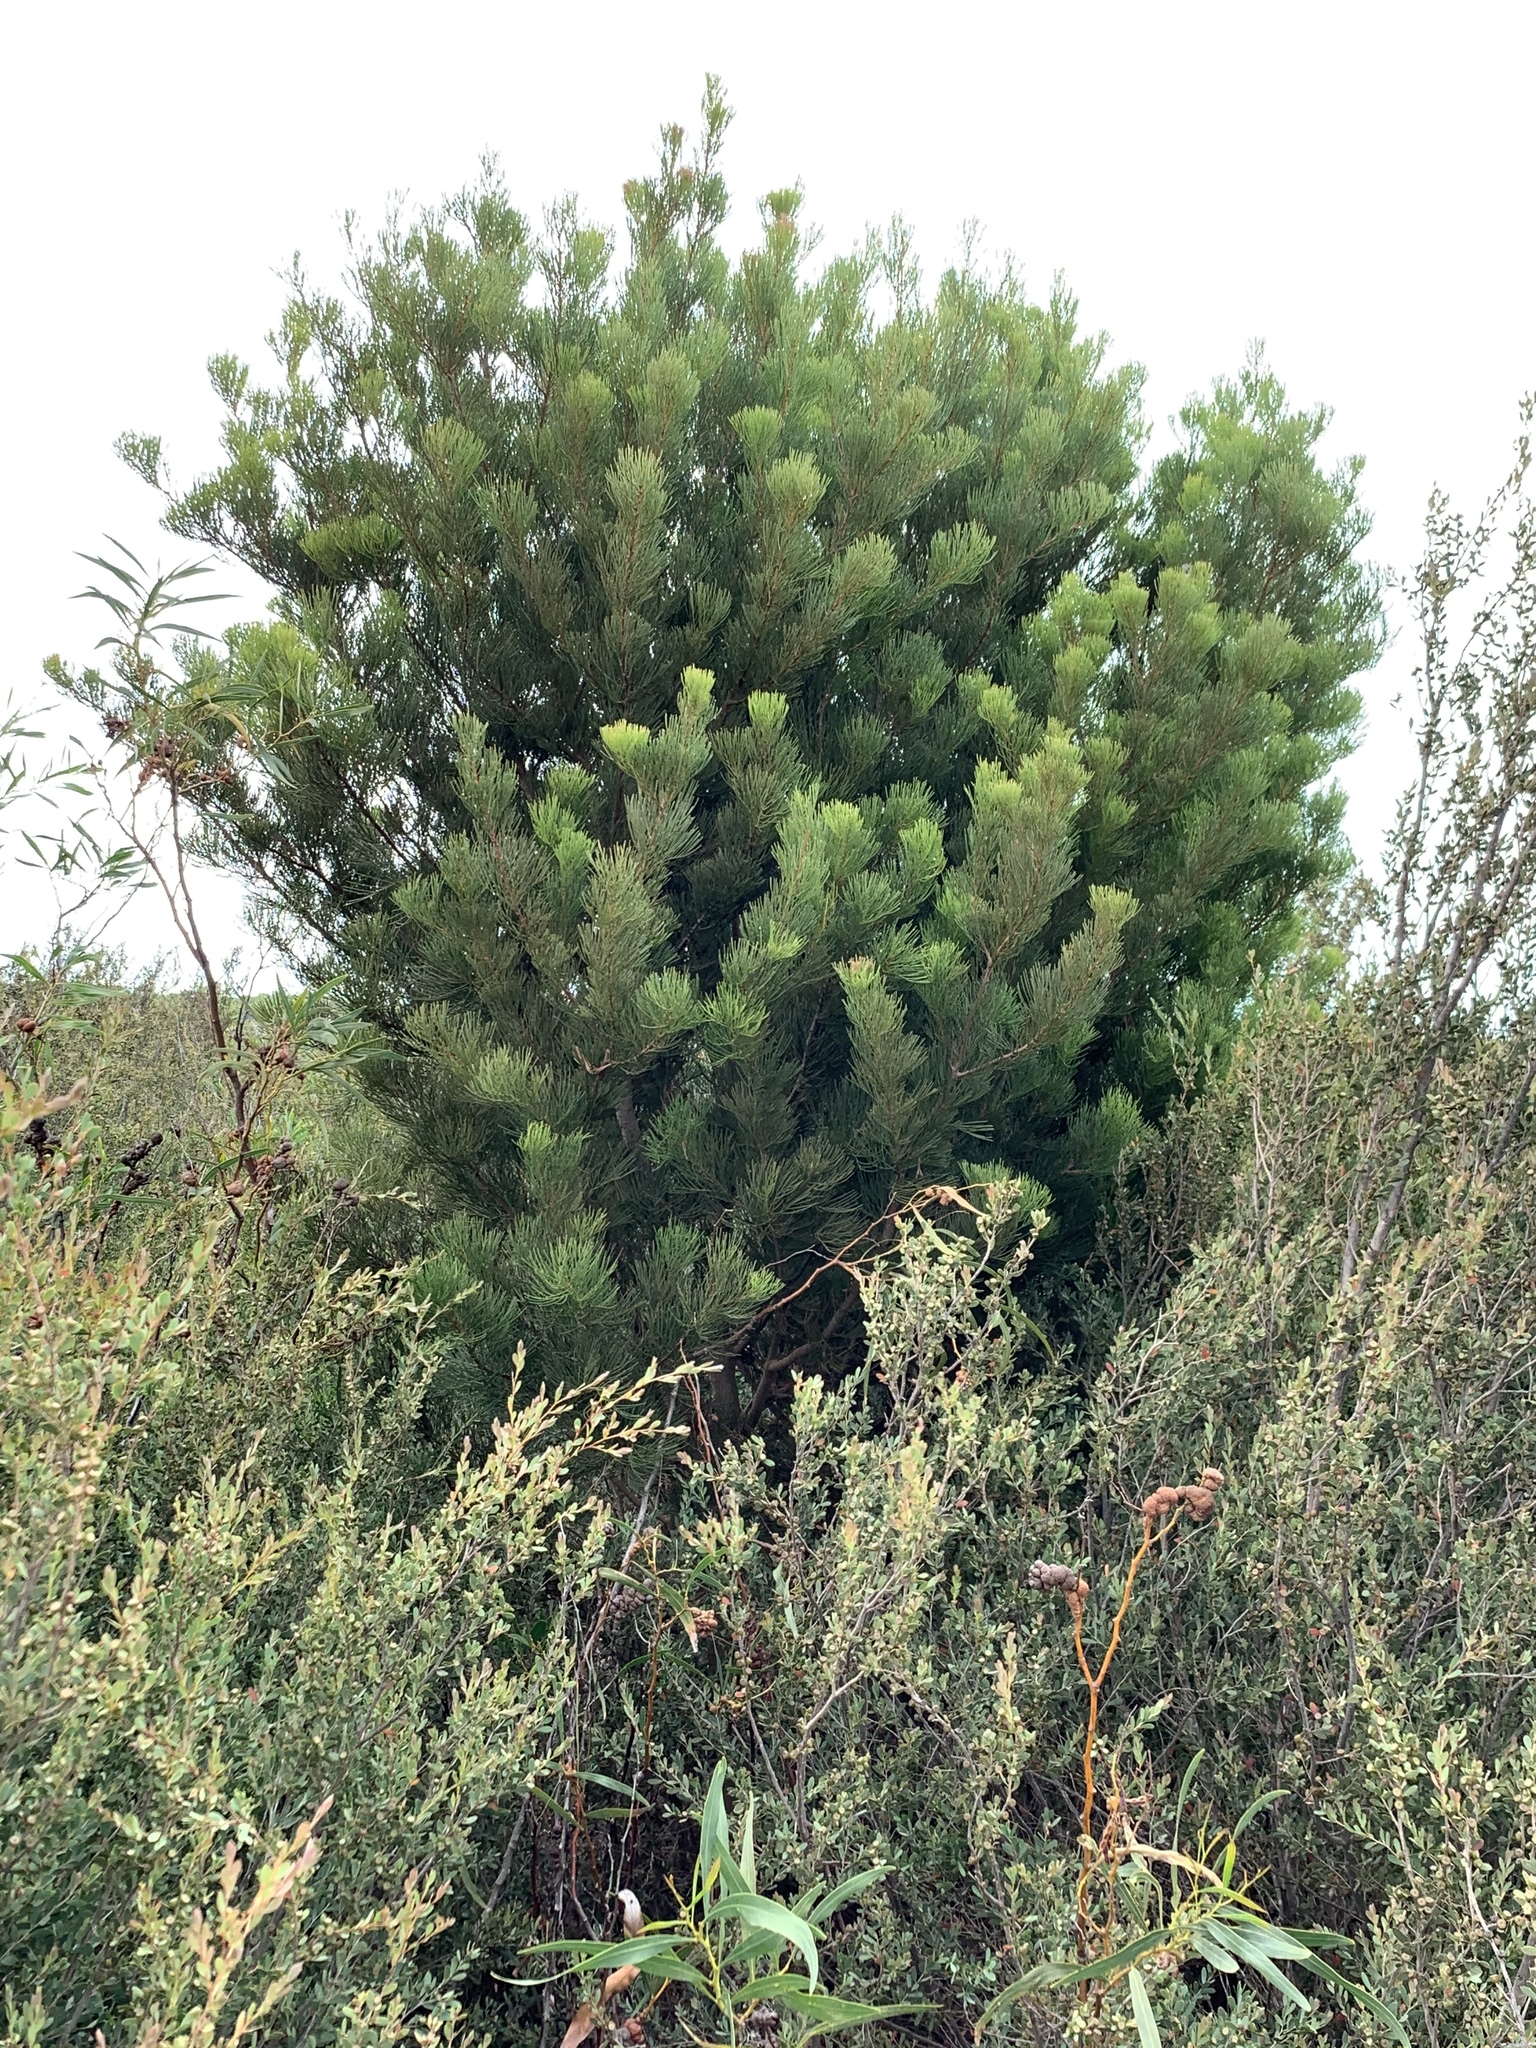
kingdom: Plantae
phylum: Tracheophyta
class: Magnoliopsida
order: Proteales
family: Proteaceae
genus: Hakea
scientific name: Hakea drupacea
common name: Sweet hakea
